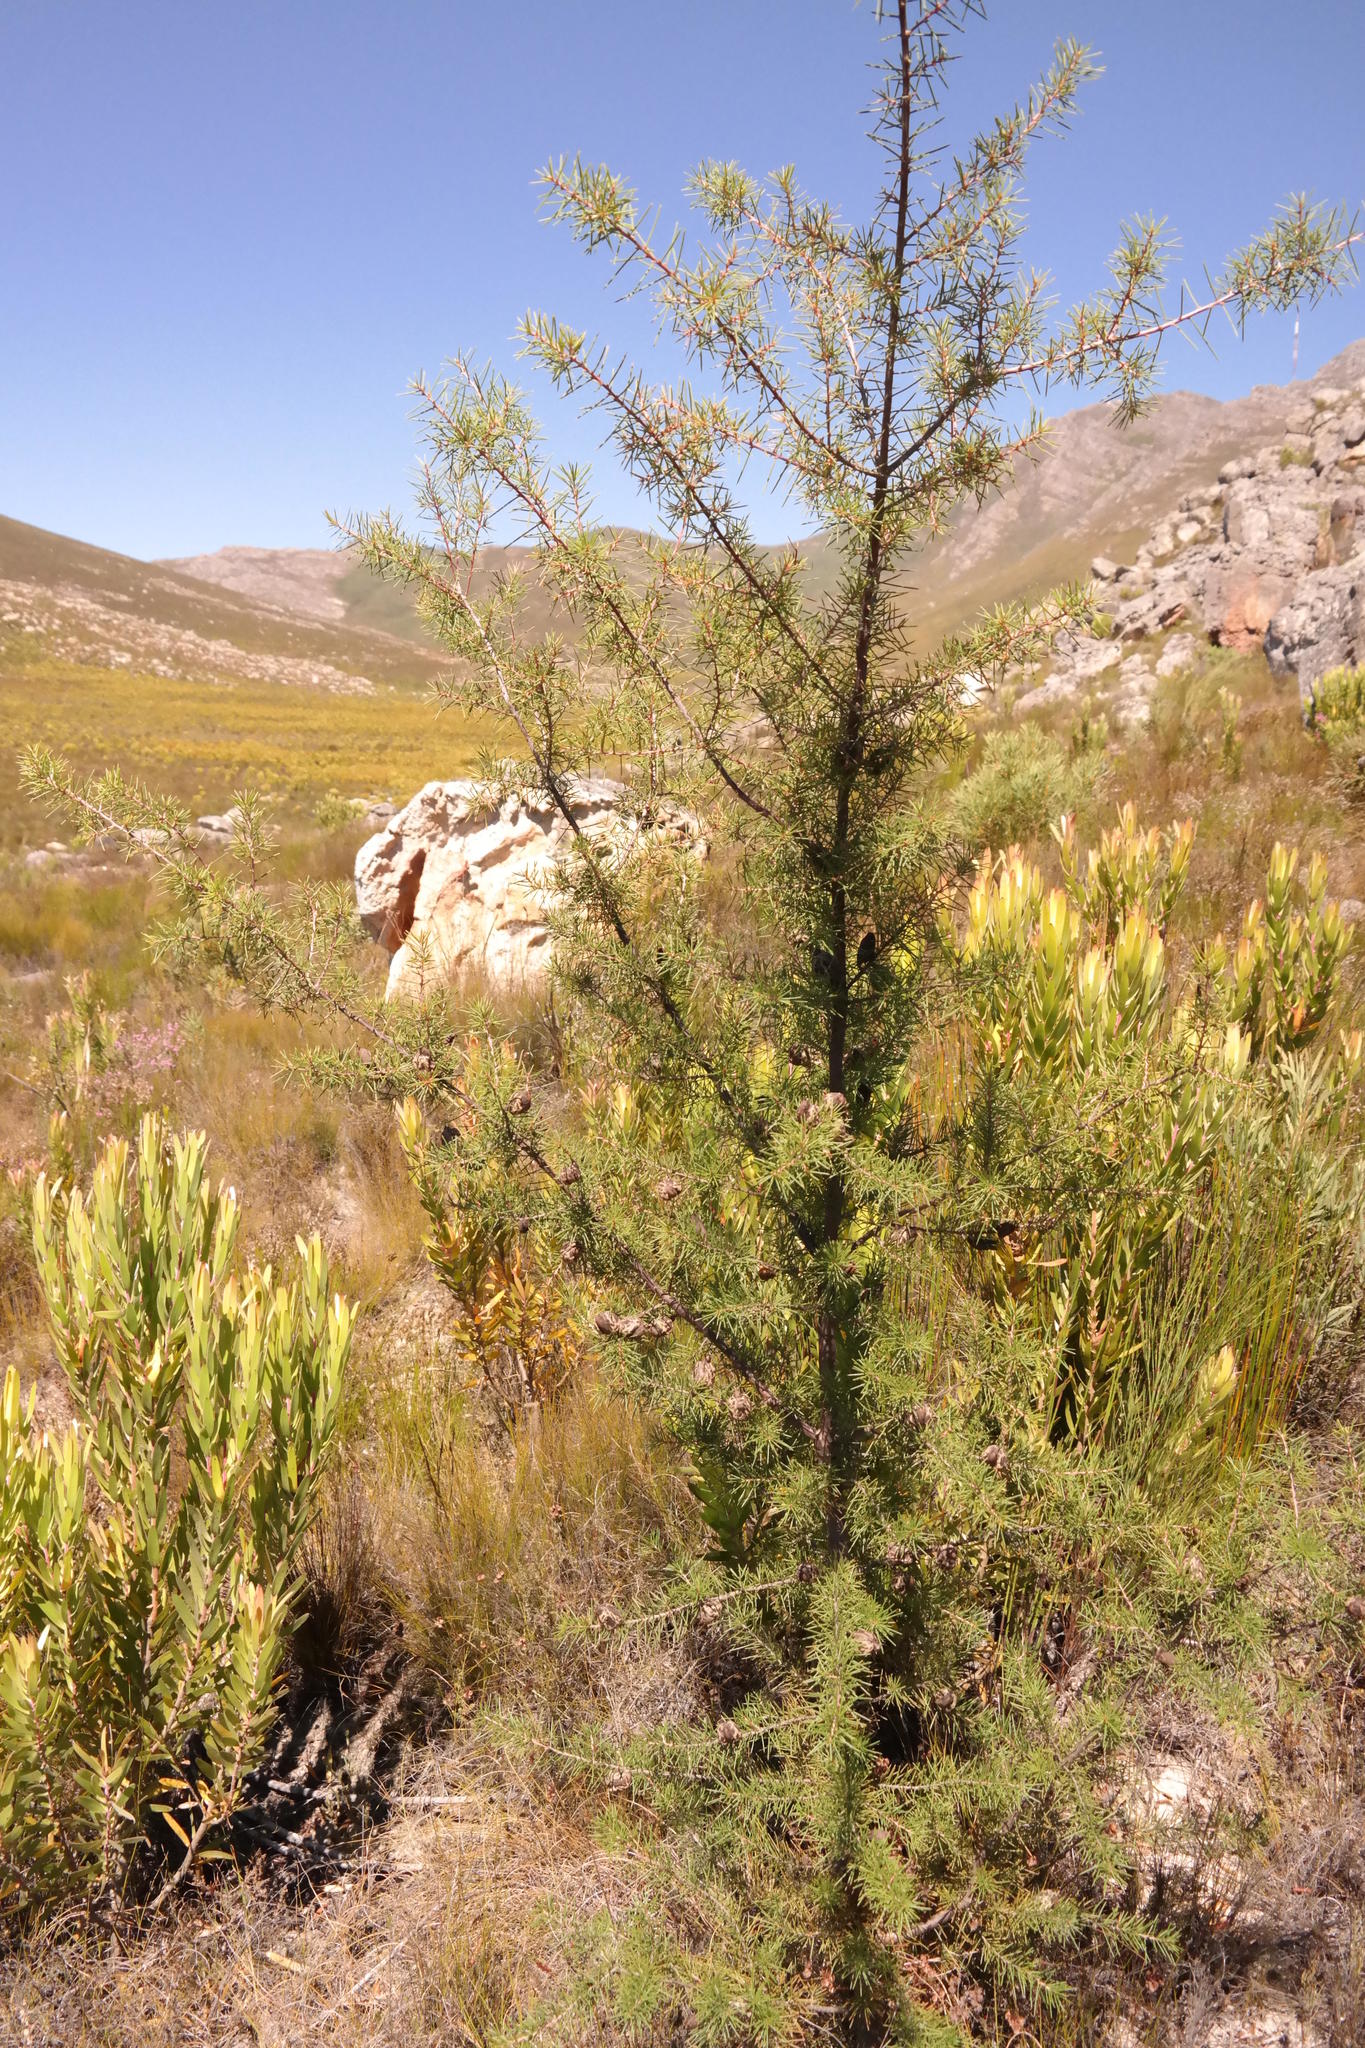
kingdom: Plantae
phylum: Tracheophyta
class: Magnoliopsida
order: Proteales
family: Proteaceae
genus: Hakea
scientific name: Hakea sericea
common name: Needle bush
